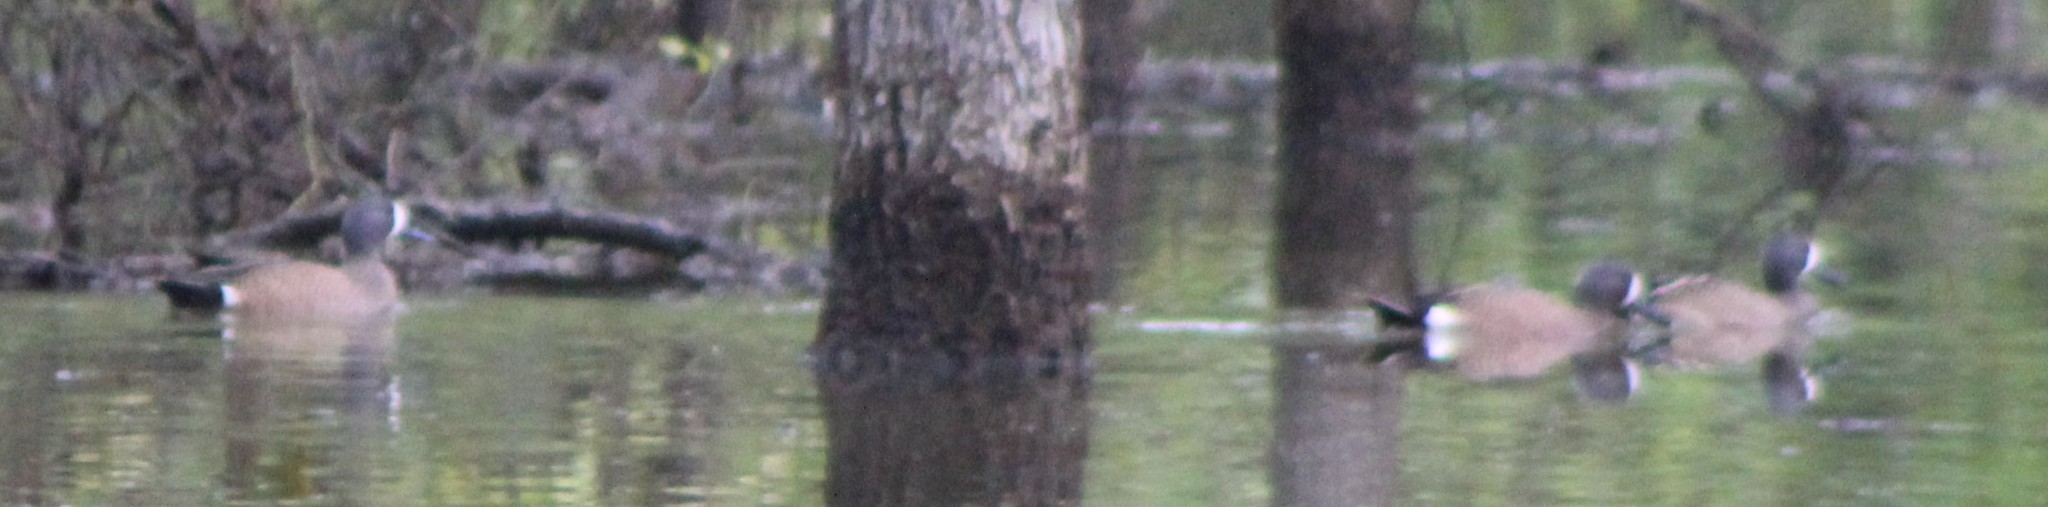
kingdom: Animalia
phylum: Chordata
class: Aves
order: Anseriformes
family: Anatidae
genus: Spatula
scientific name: Spatula discors
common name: Blue-winged teal
